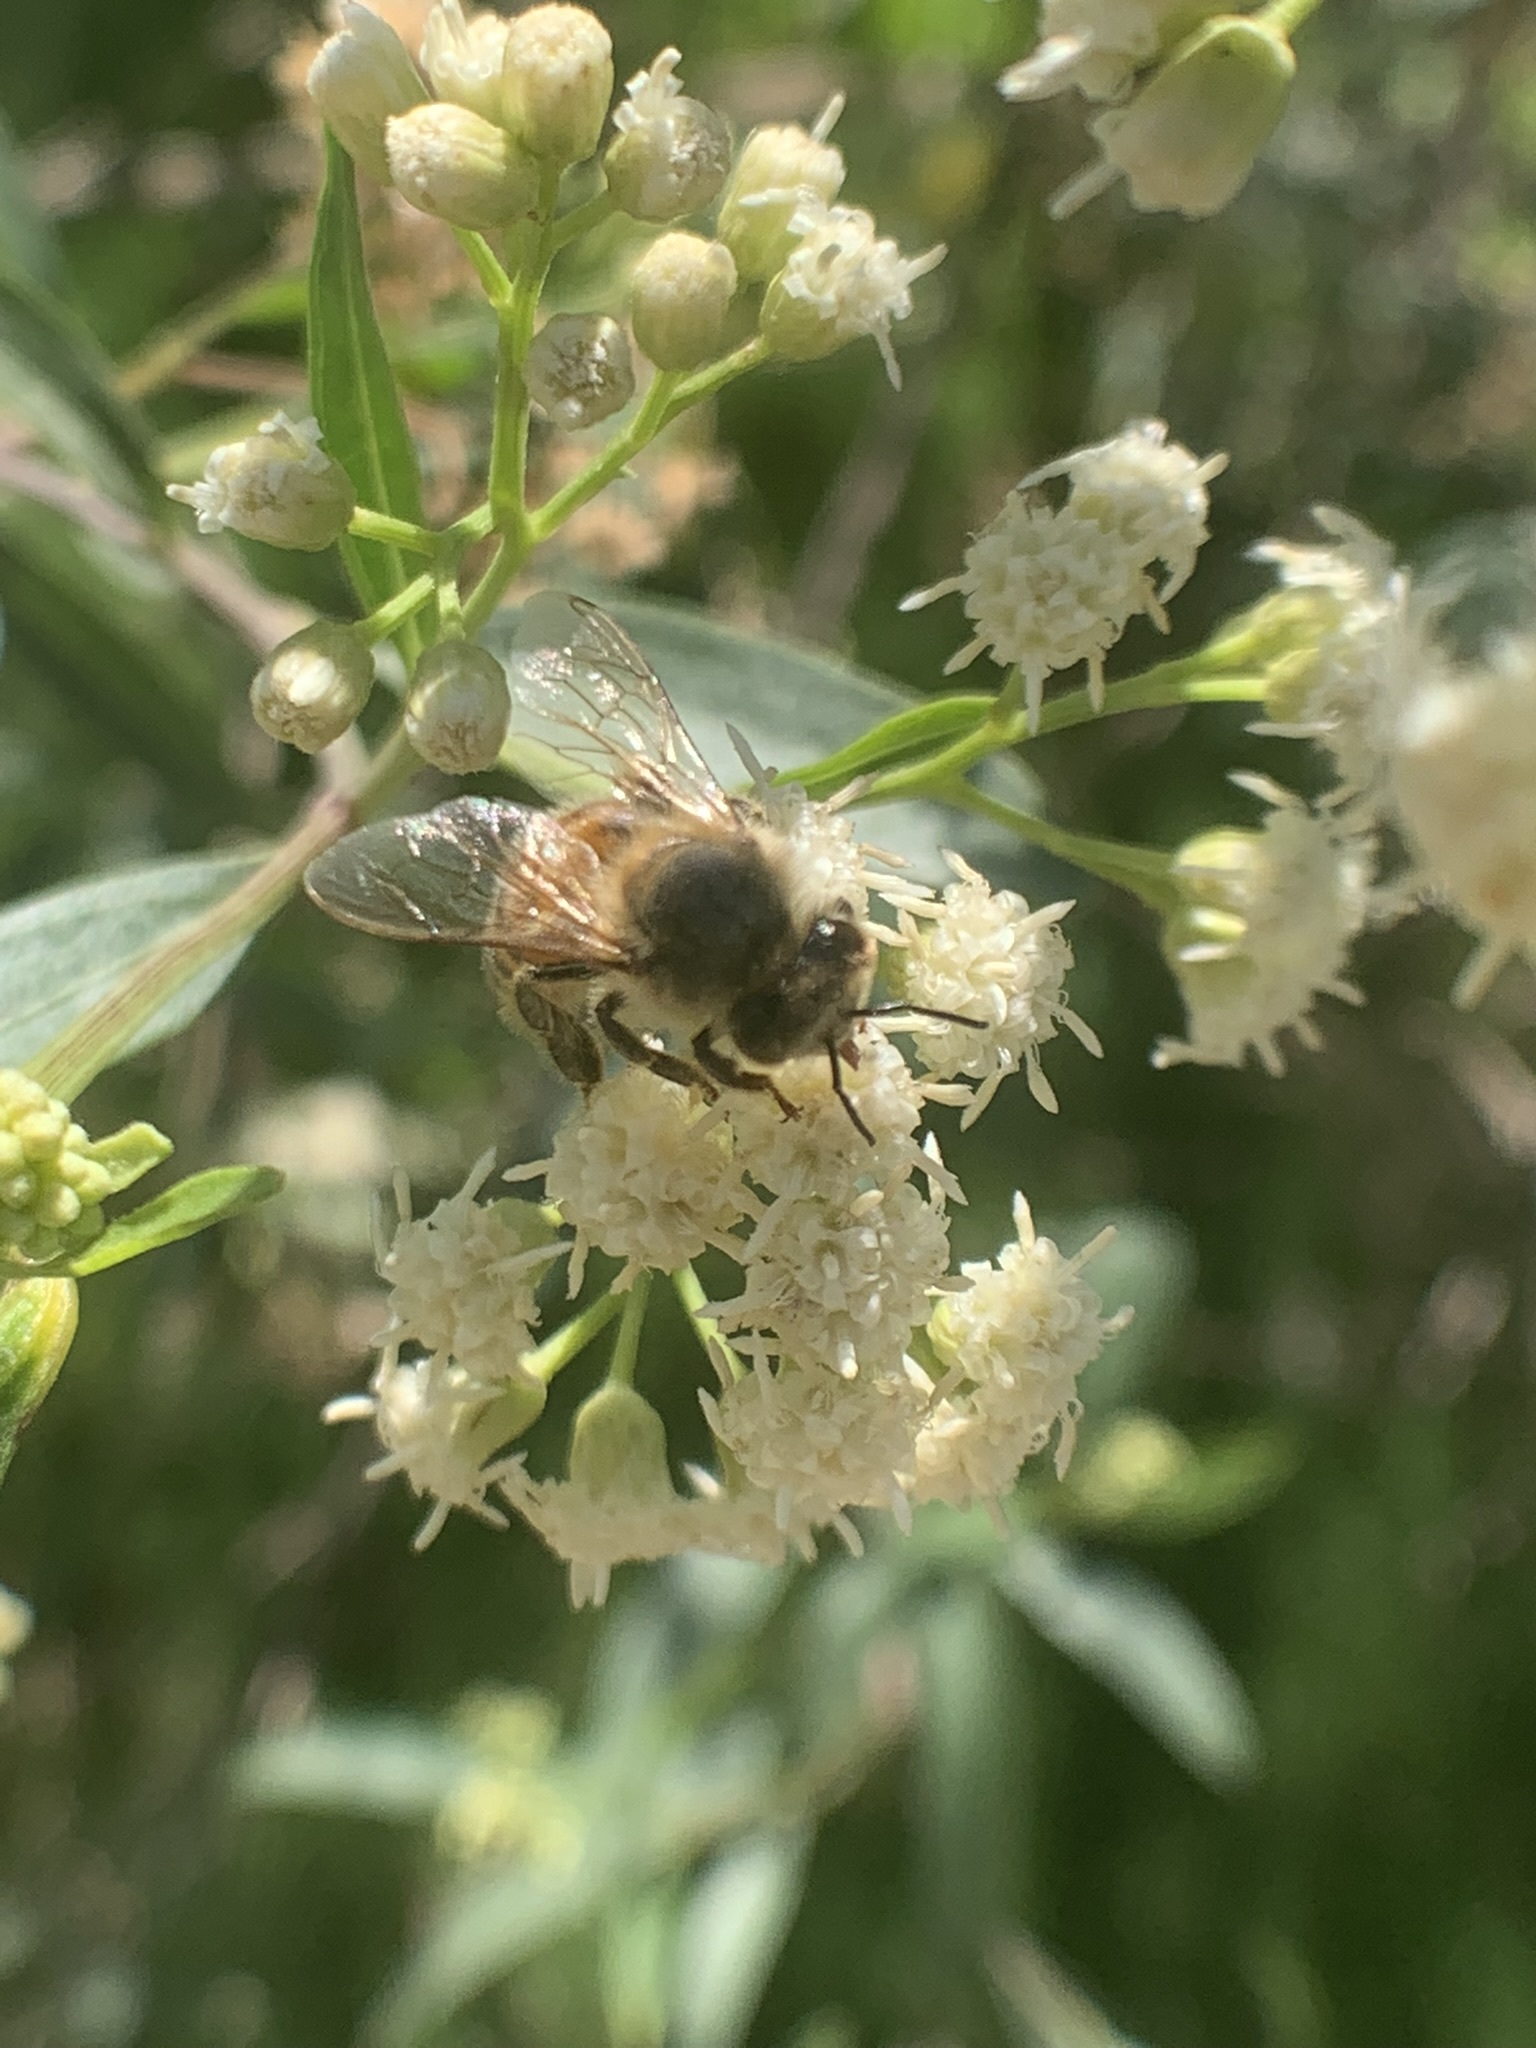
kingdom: Animalia
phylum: Arthropoda
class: Insecta
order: Hymenoptera
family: Apidae
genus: Apis
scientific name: Apis mellifera
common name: Honey bee
